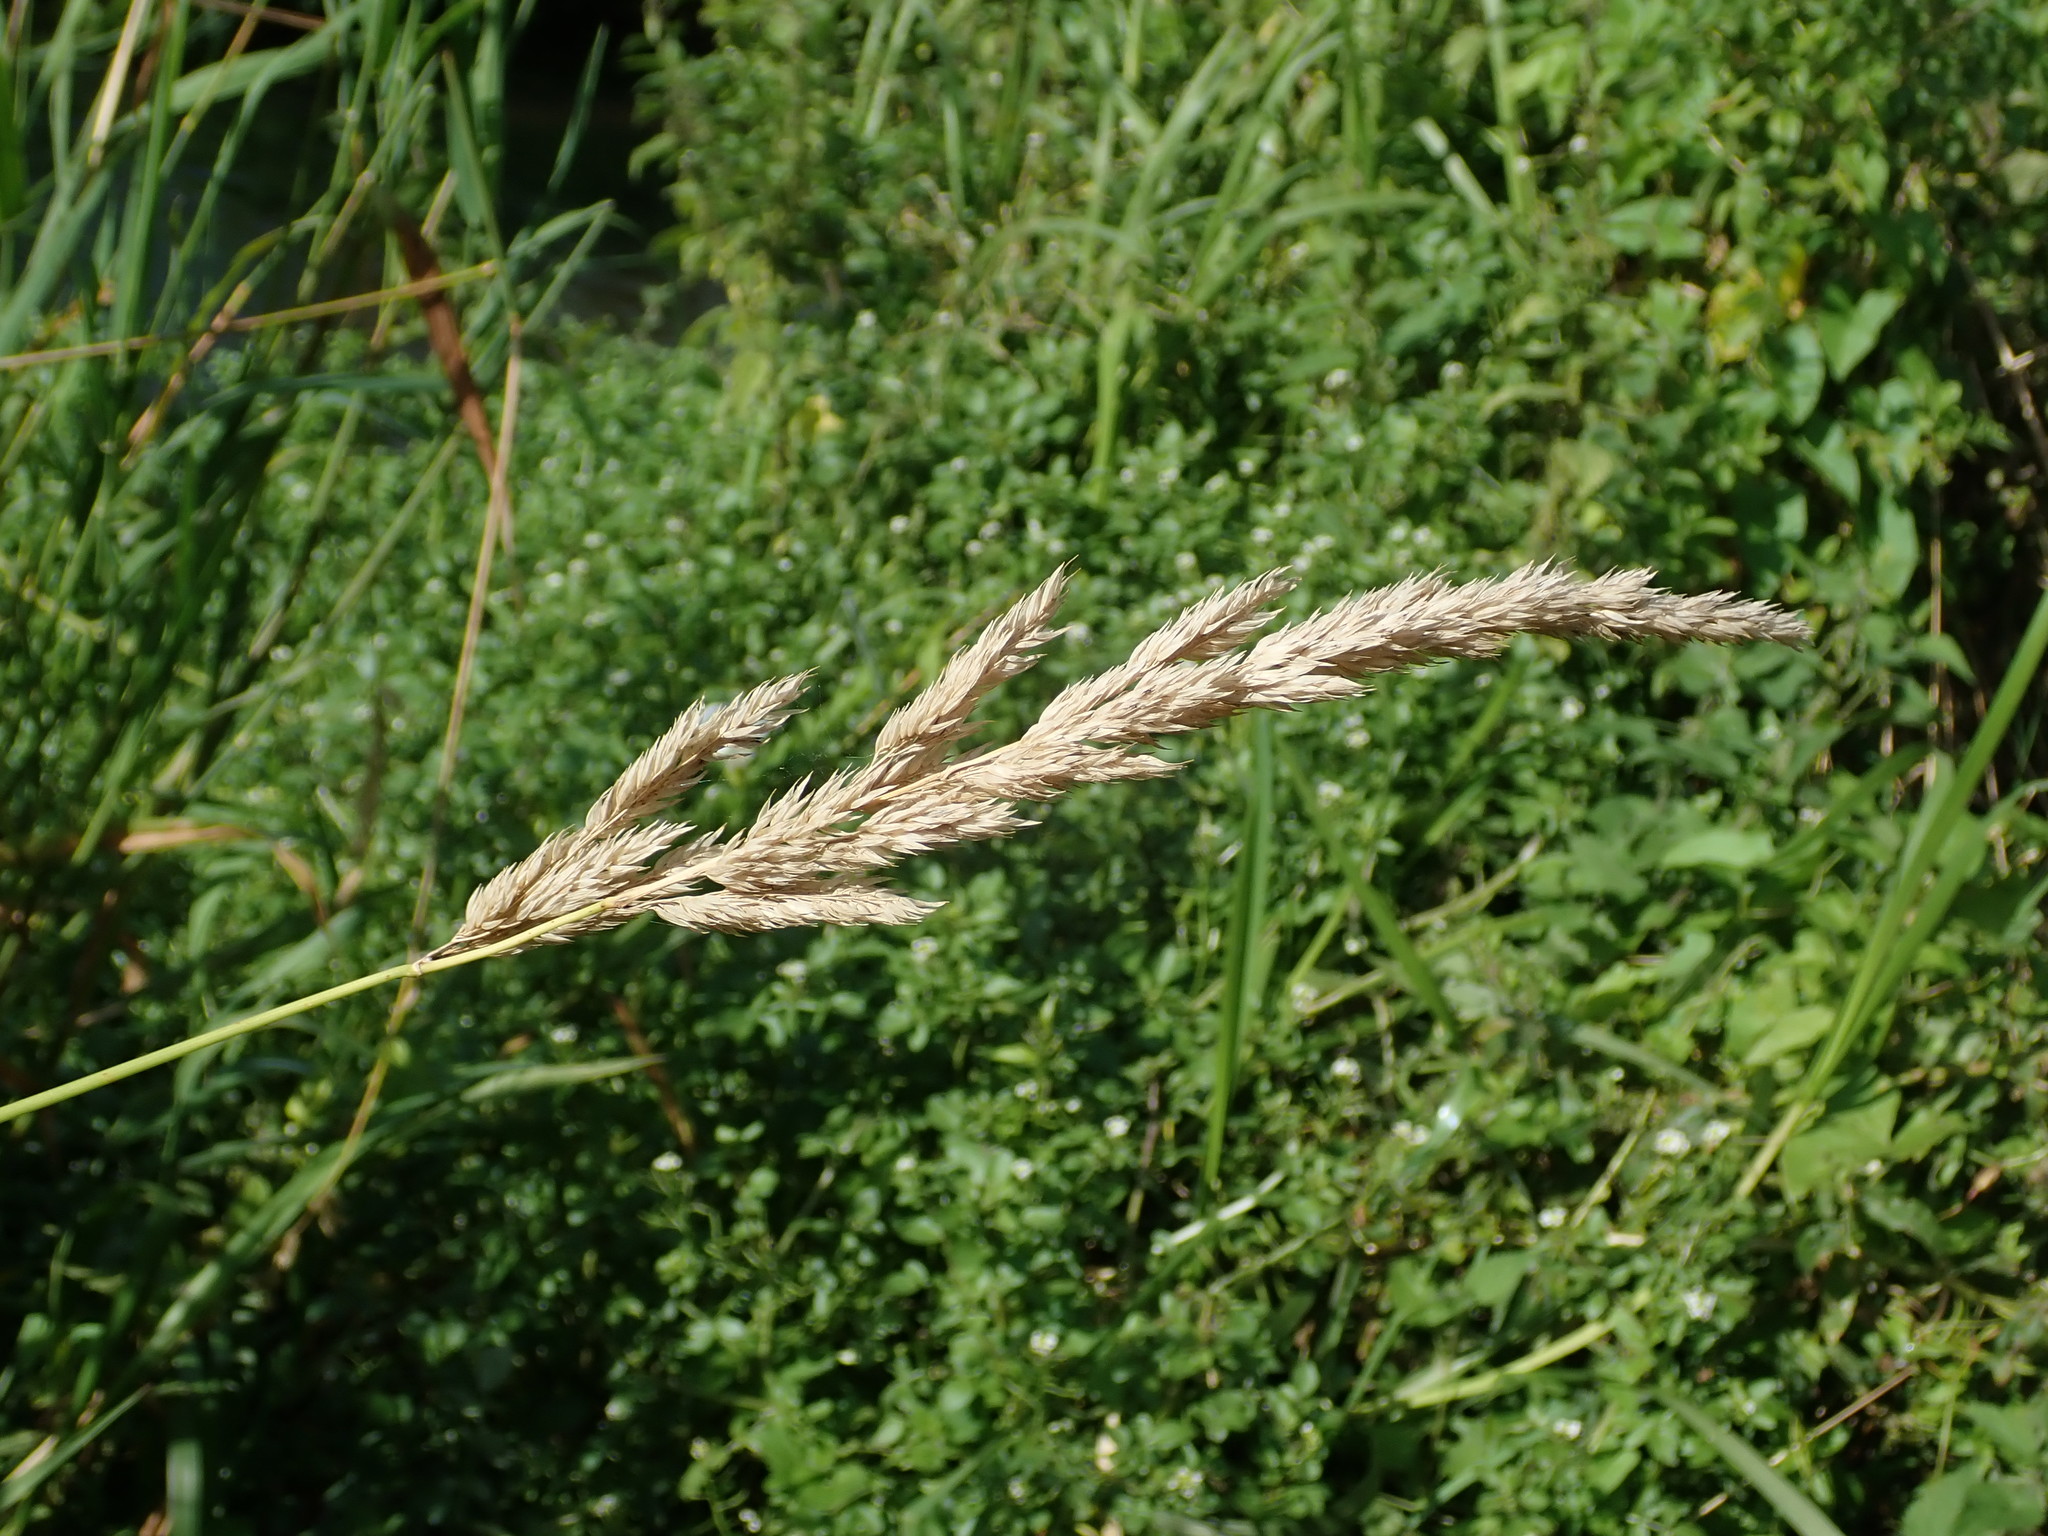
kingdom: Plantae
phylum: Tracheophyta
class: Liliopsida
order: Poales
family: Poaceae
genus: Phalaris
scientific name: Phalaris arundinacea
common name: Reed canary-grass
